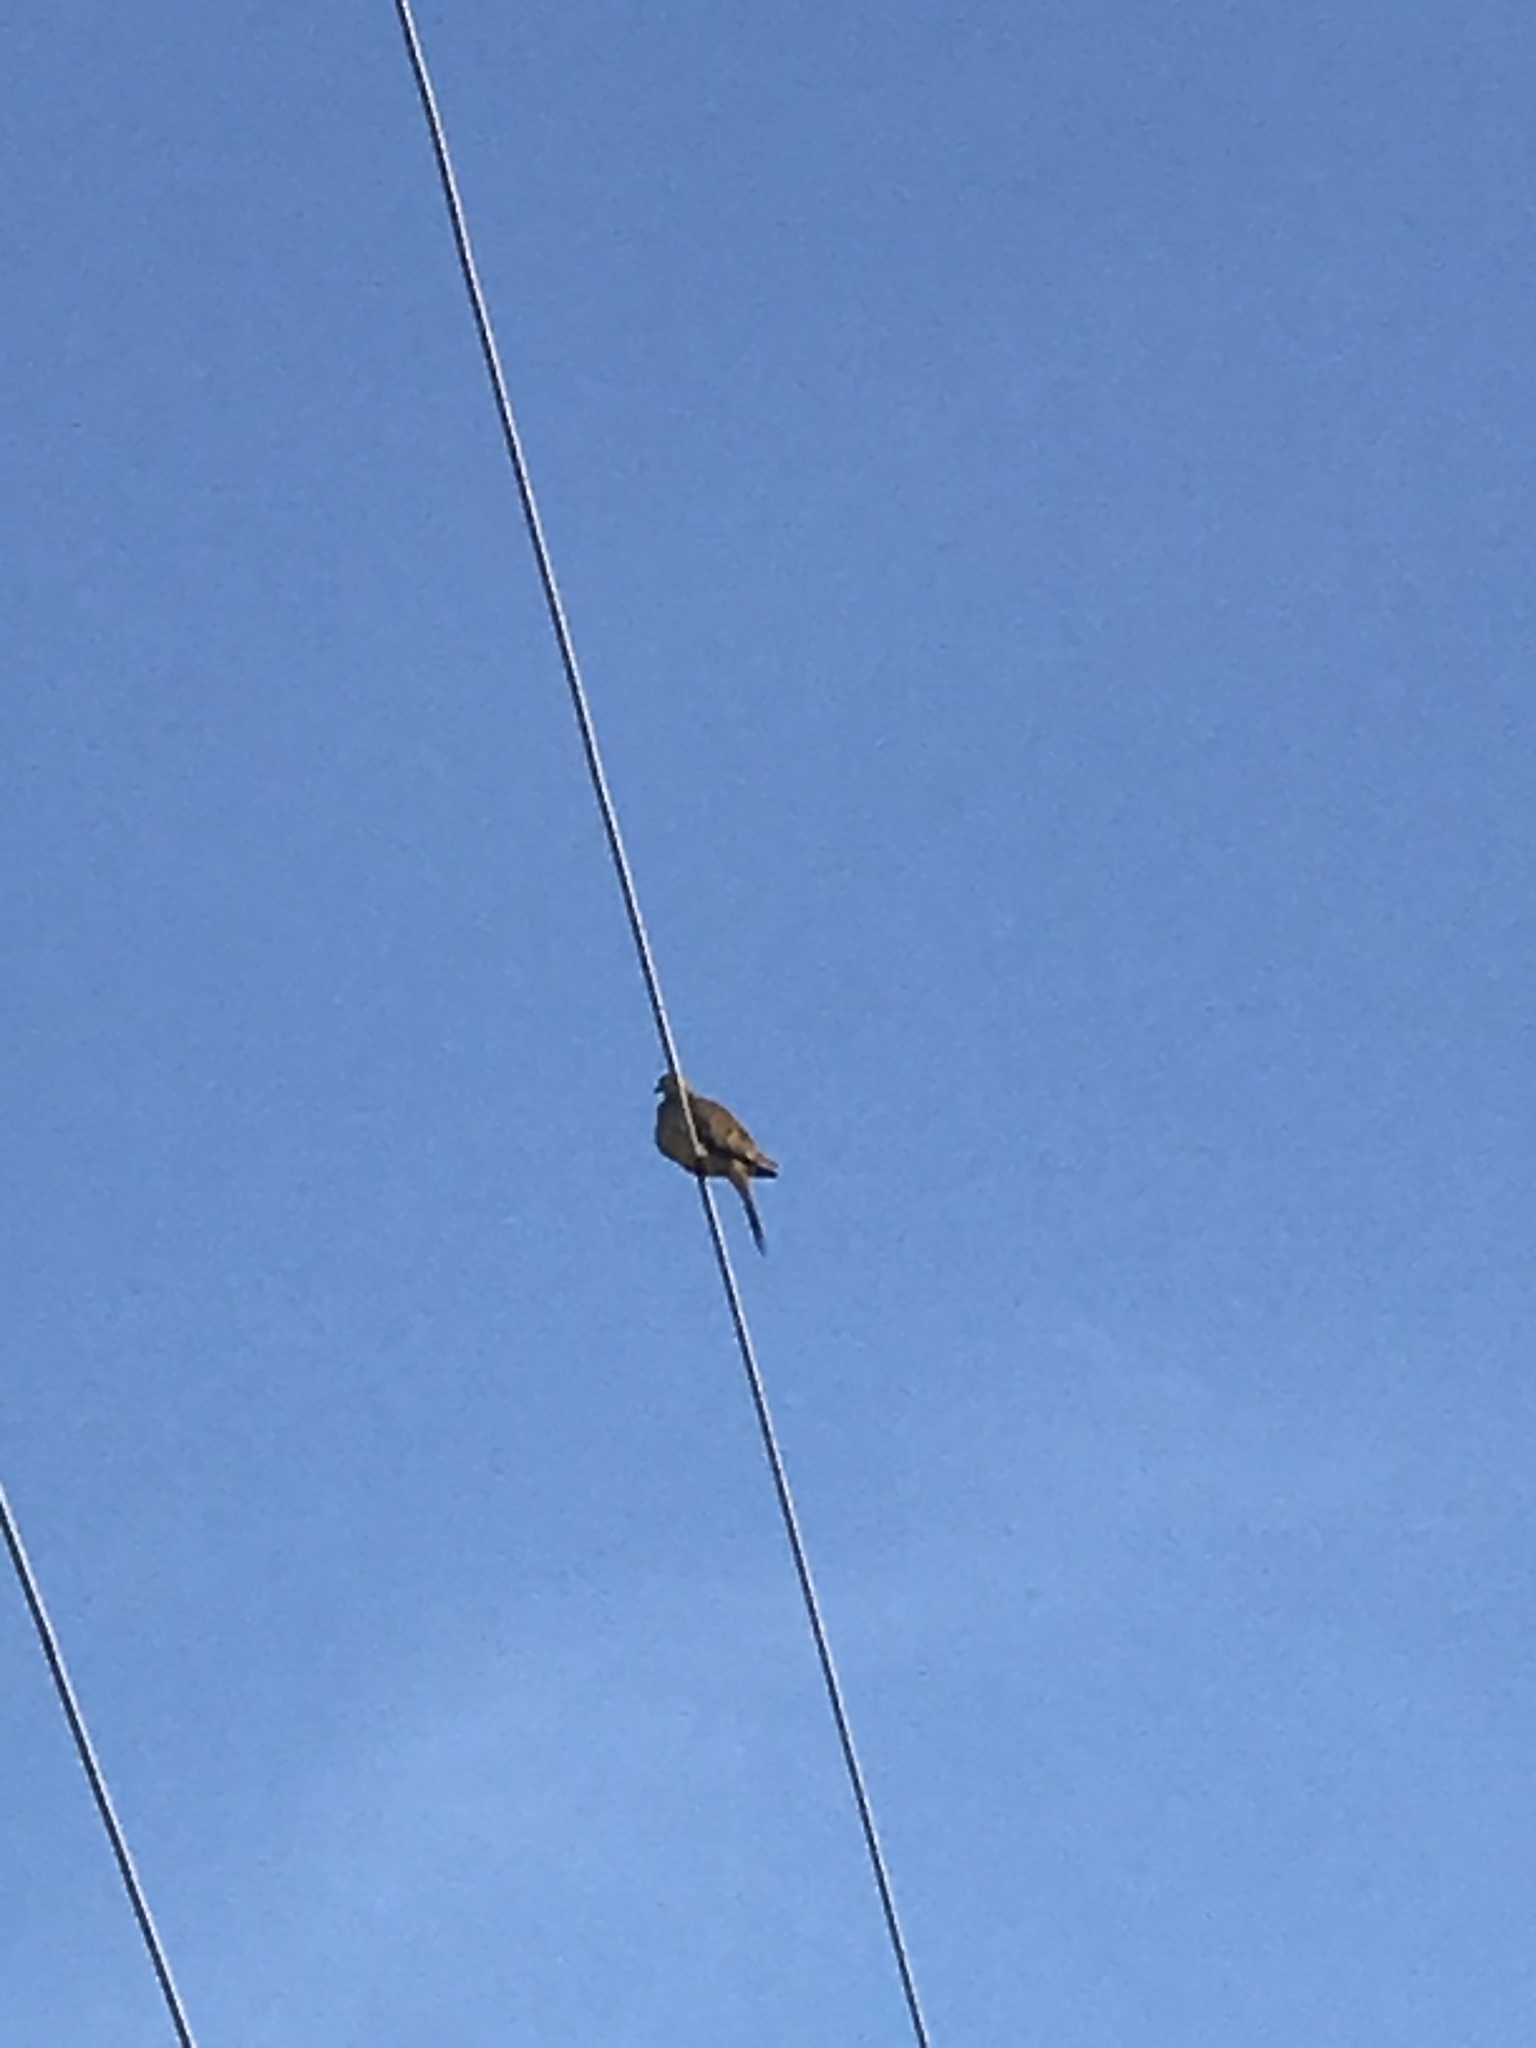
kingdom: Animalia
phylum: Chordata
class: Aves
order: Columbiformes
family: Columbidae
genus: Zenaida
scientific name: Zenaida macroura
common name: Mourning dove
